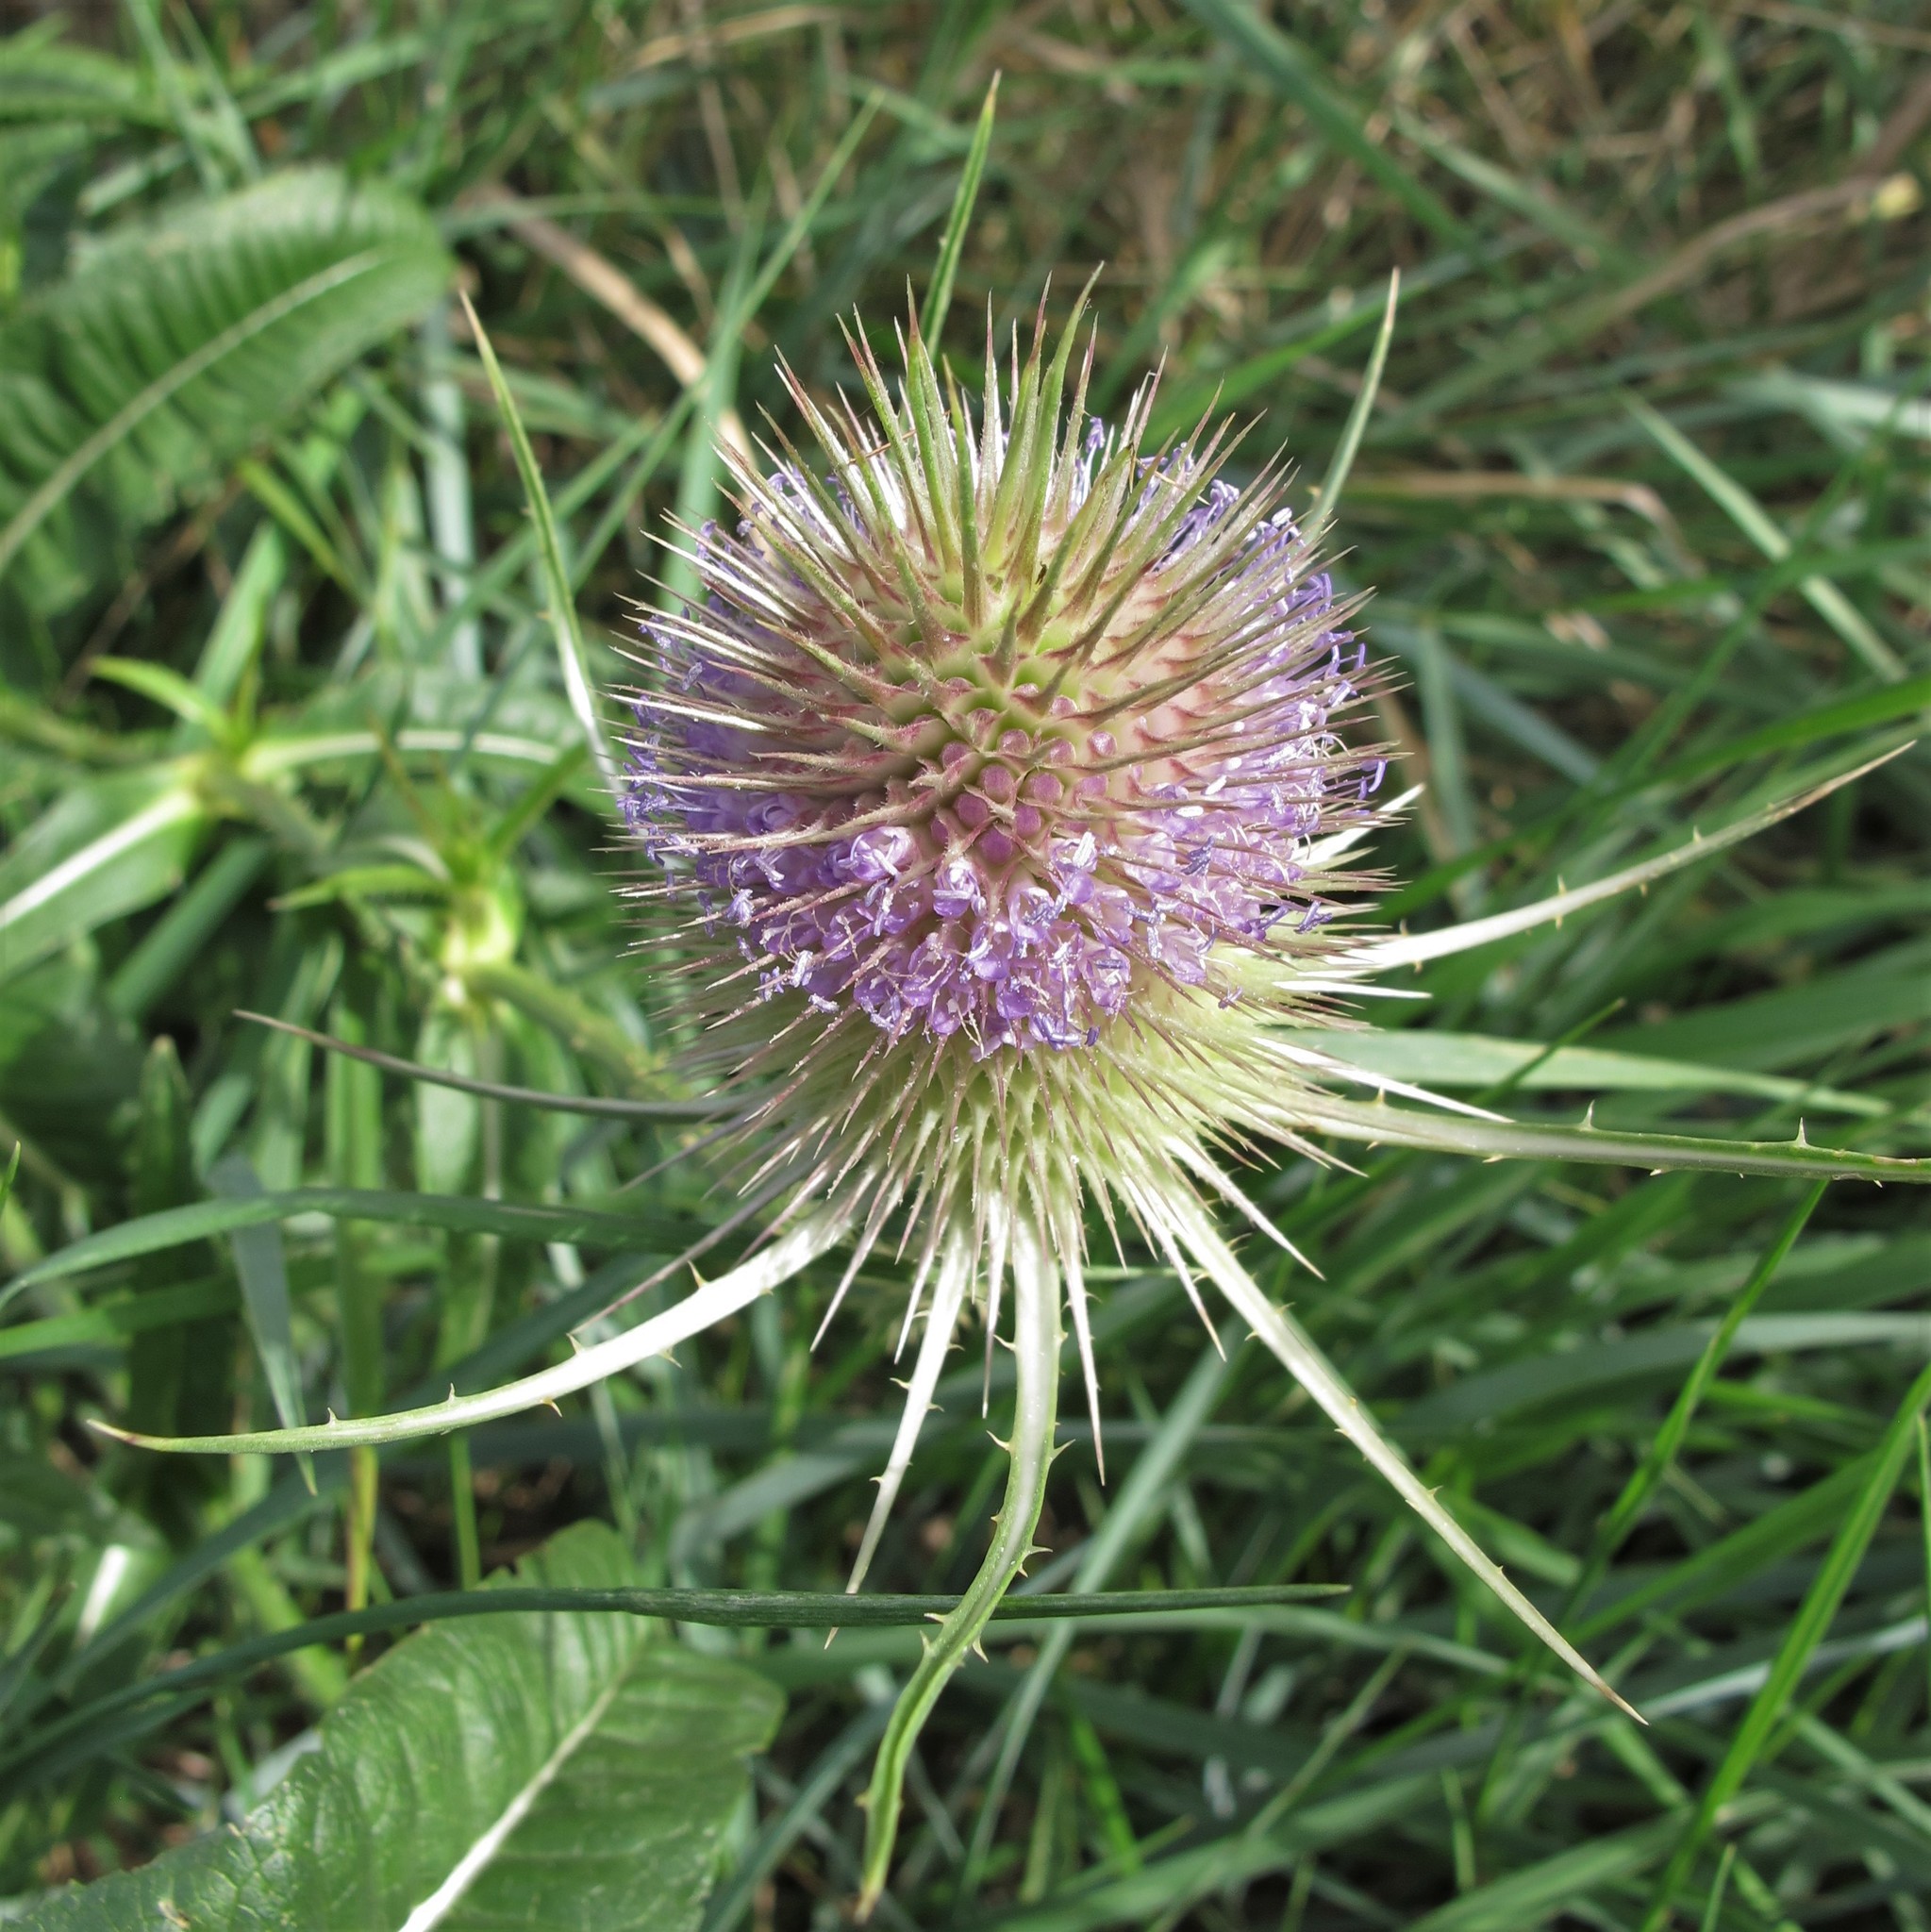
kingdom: Plantae
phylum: Tracheophyta
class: Magnoliopsida
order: Dipsacales
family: Caprifoliaceae
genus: Dipsacus
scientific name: Dipsacus fullonum
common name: Teasel
